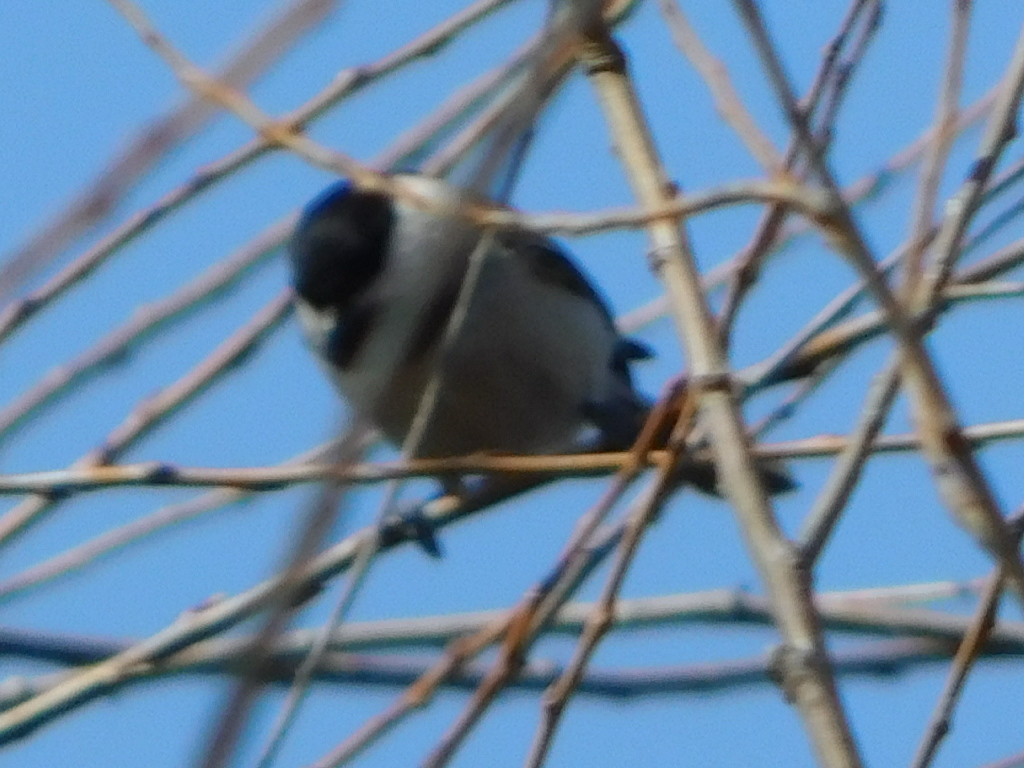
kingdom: Animalia
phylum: Chordata
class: Aves
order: Passeriformes
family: Paridae
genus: Poecile
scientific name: Poecile carolinensis
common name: Carolina chickadee
